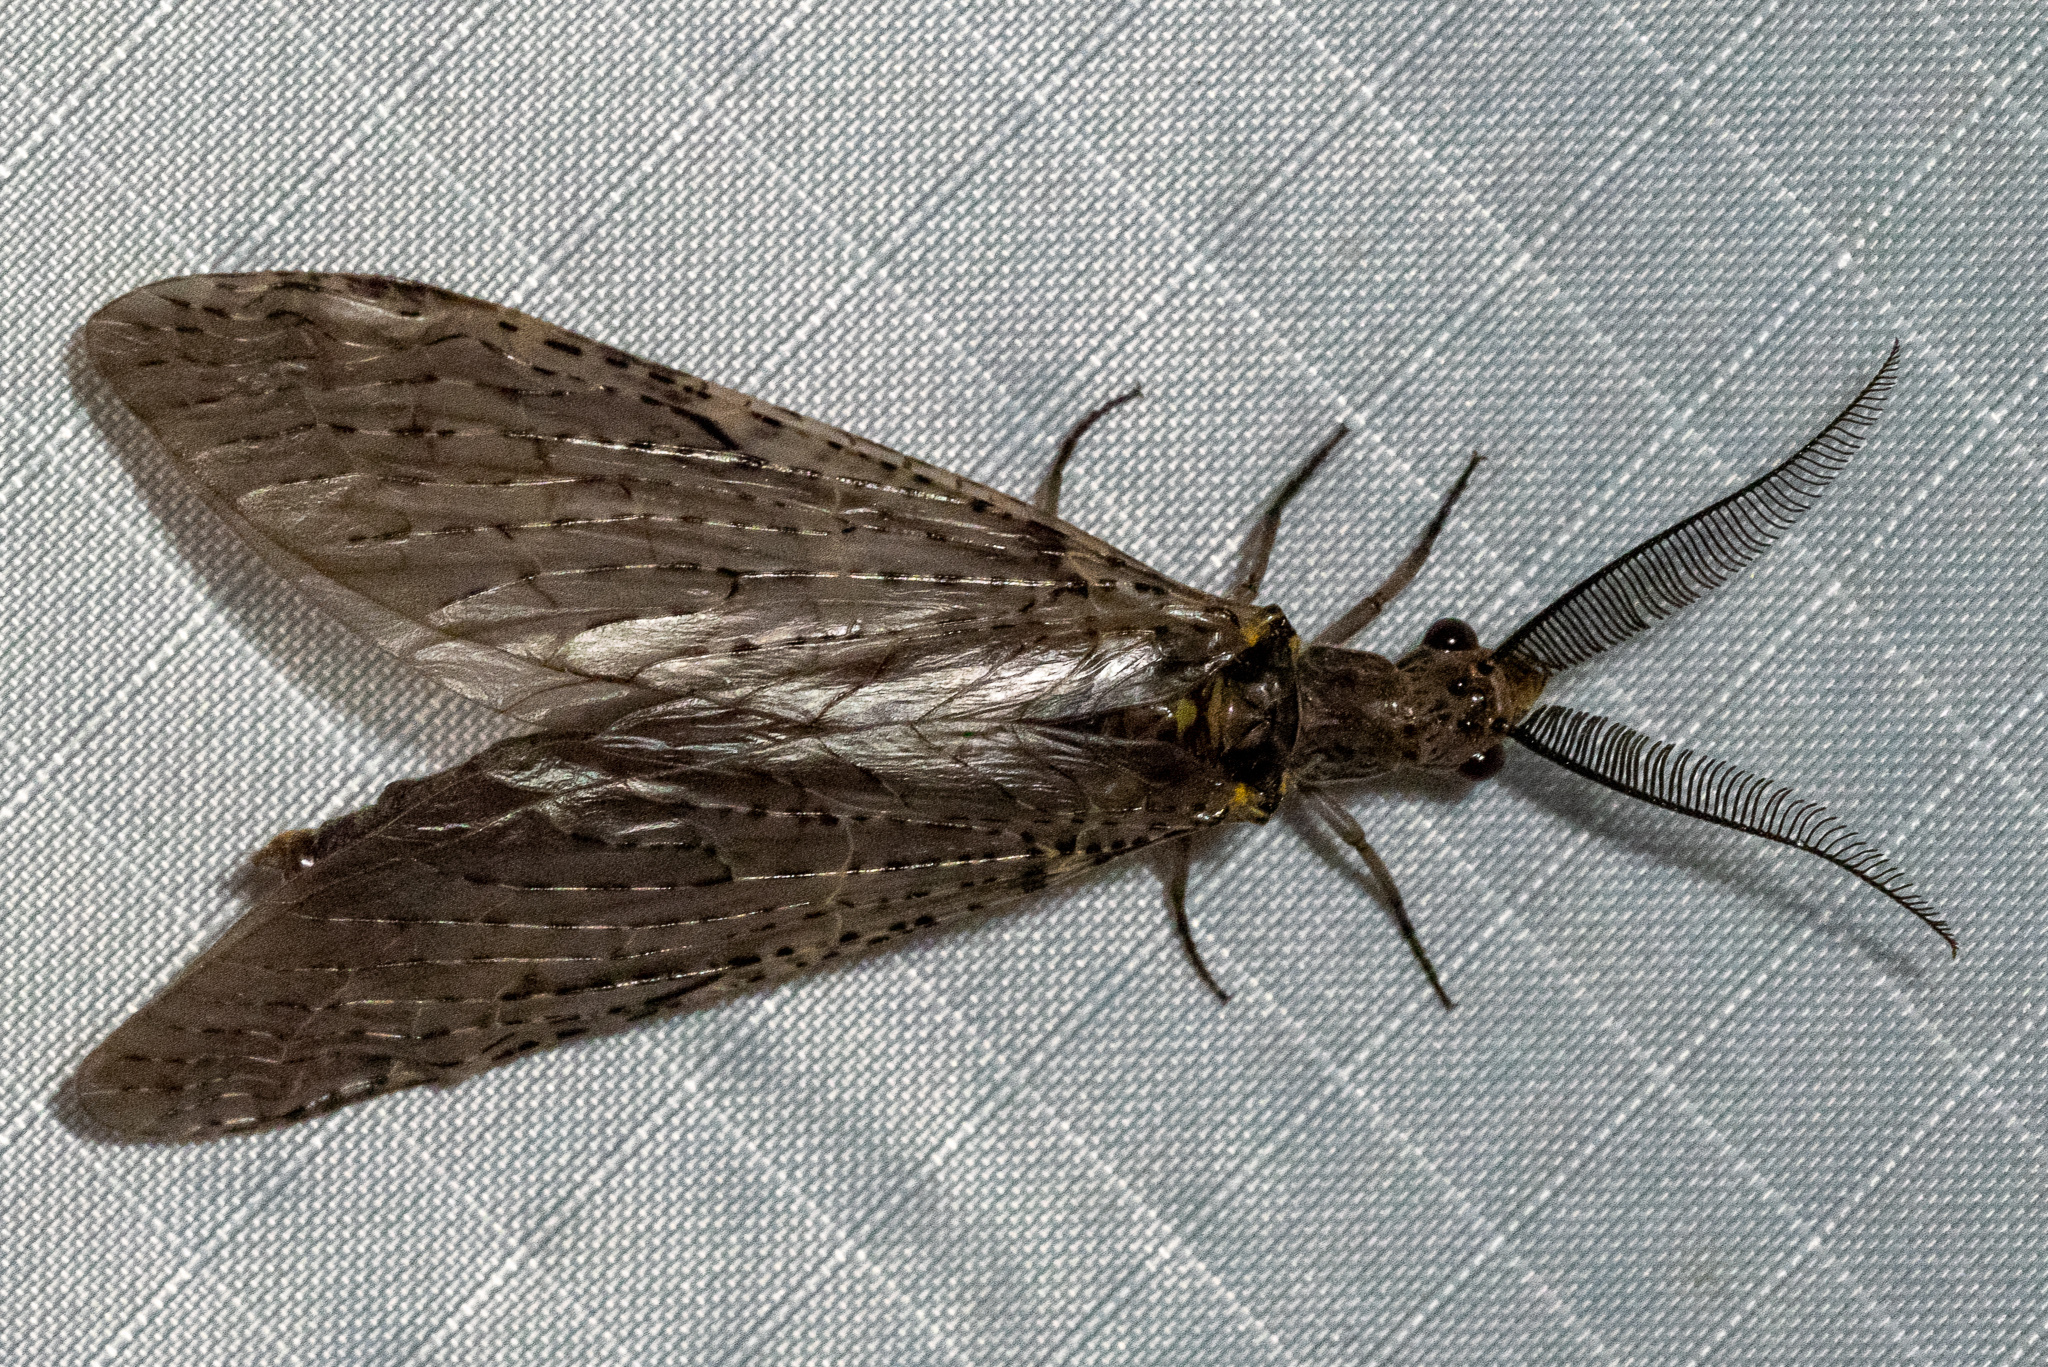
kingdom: Animalia
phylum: Arthropoda
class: Insecta
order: Megaloptera
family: Corydalidae
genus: Chauliodes
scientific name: Chauliodes rastricornis
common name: Spring fishfly
